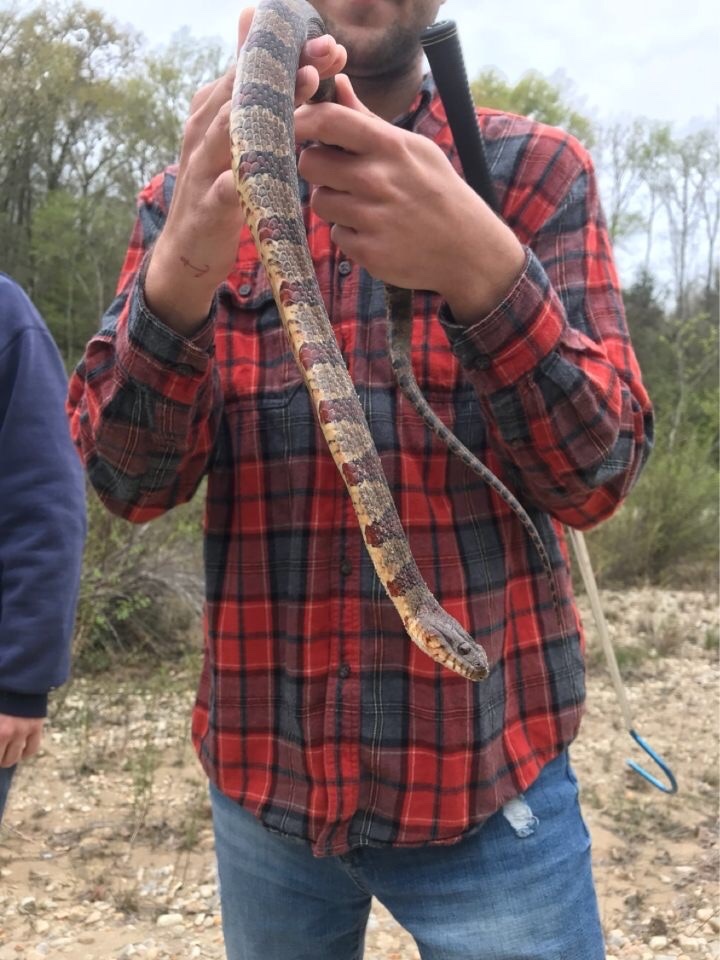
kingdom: Animalia
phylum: Chordata
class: Squamata
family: Colubridae
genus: Nerodia
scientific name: Nerodia sipedon
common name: Northern water snake
